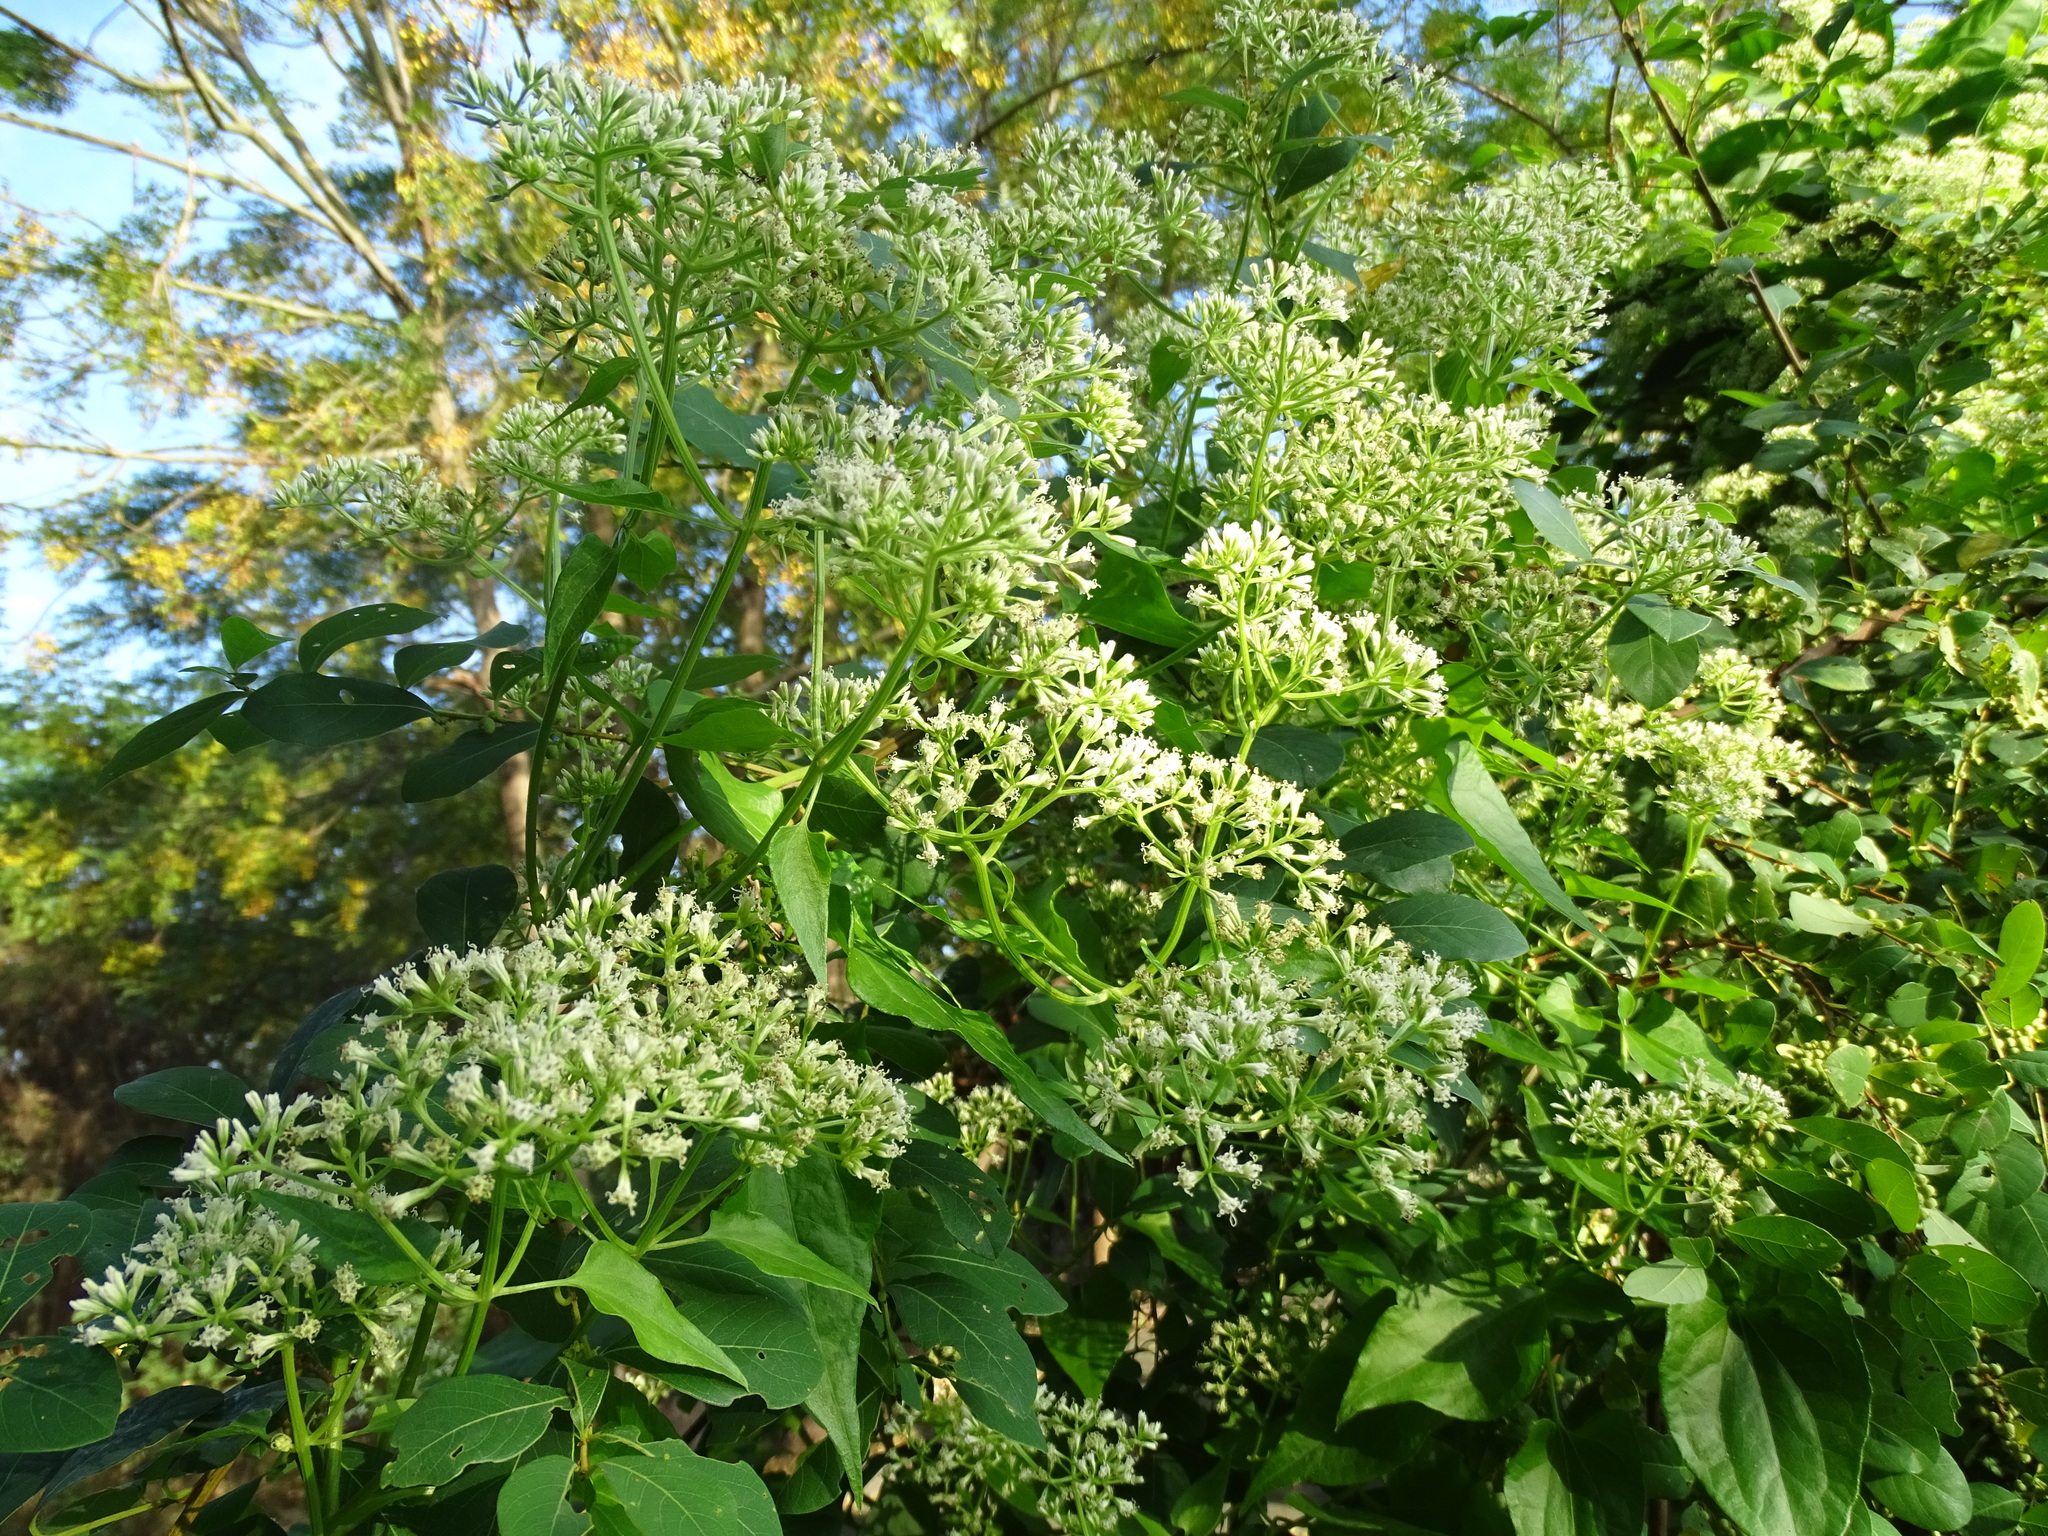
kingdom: Plantae
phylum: Tracheophyta
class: Magnoliopsida
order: Asterales
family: Asteraceae
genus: Mikania
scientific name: Mikania micrantha
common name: Mile-a-minute
